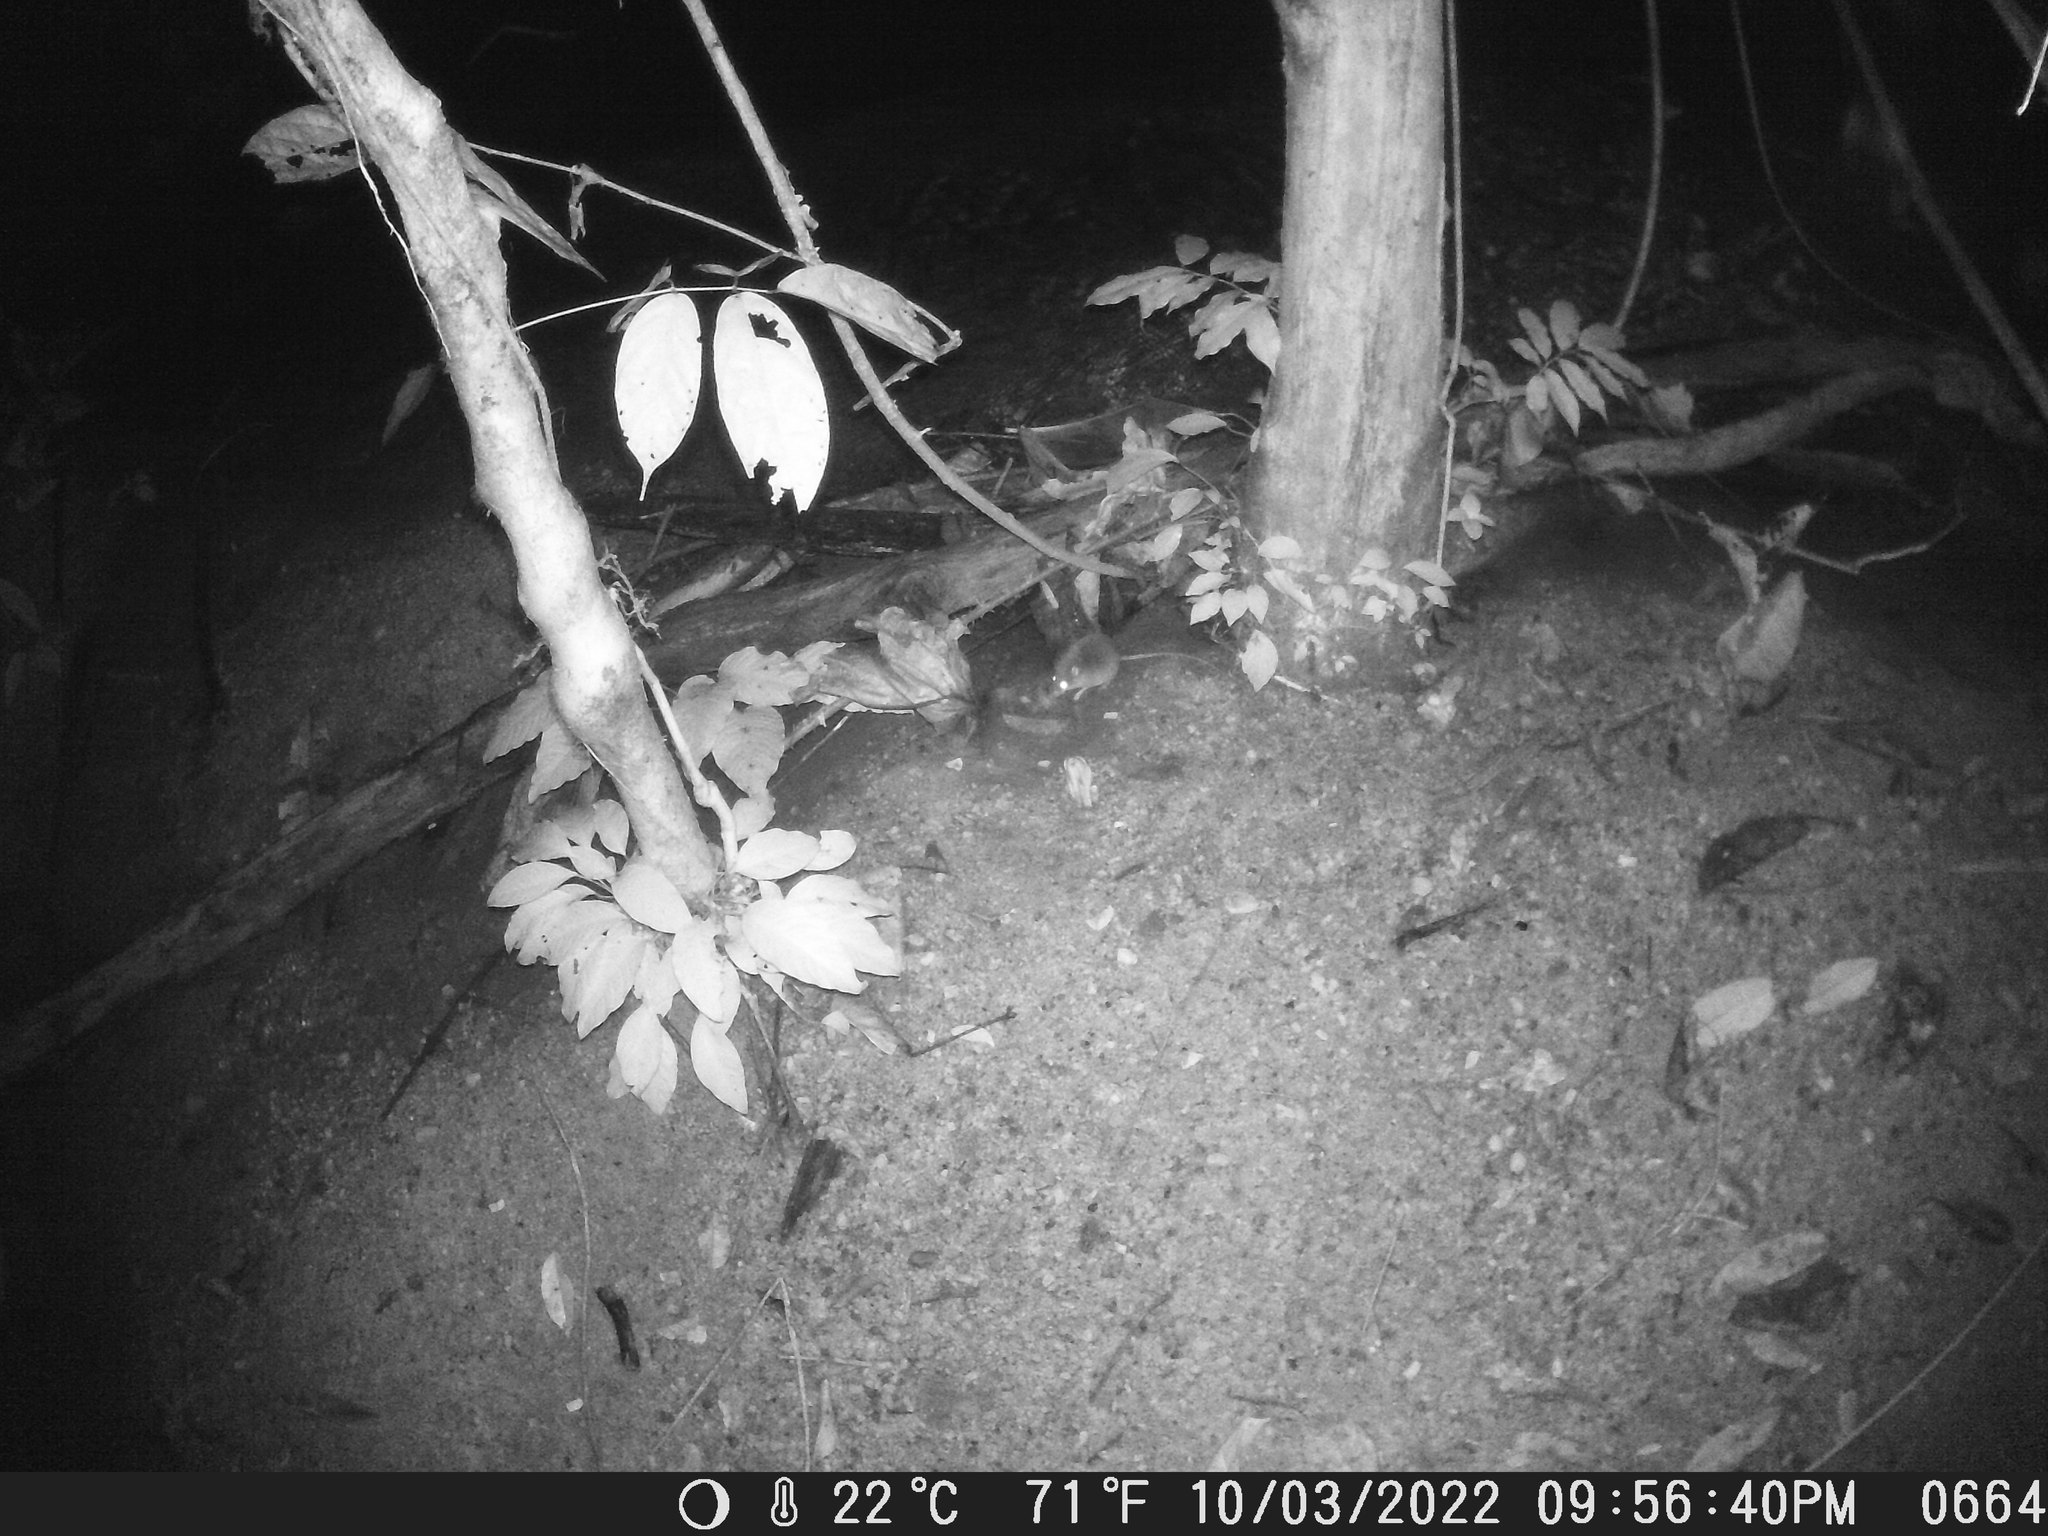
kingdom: Animalia
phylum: Chordata
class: Mammalia
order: Rodentia
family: Muridae
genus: Colomys
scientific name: Colomys goslingi
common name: African wading rat
